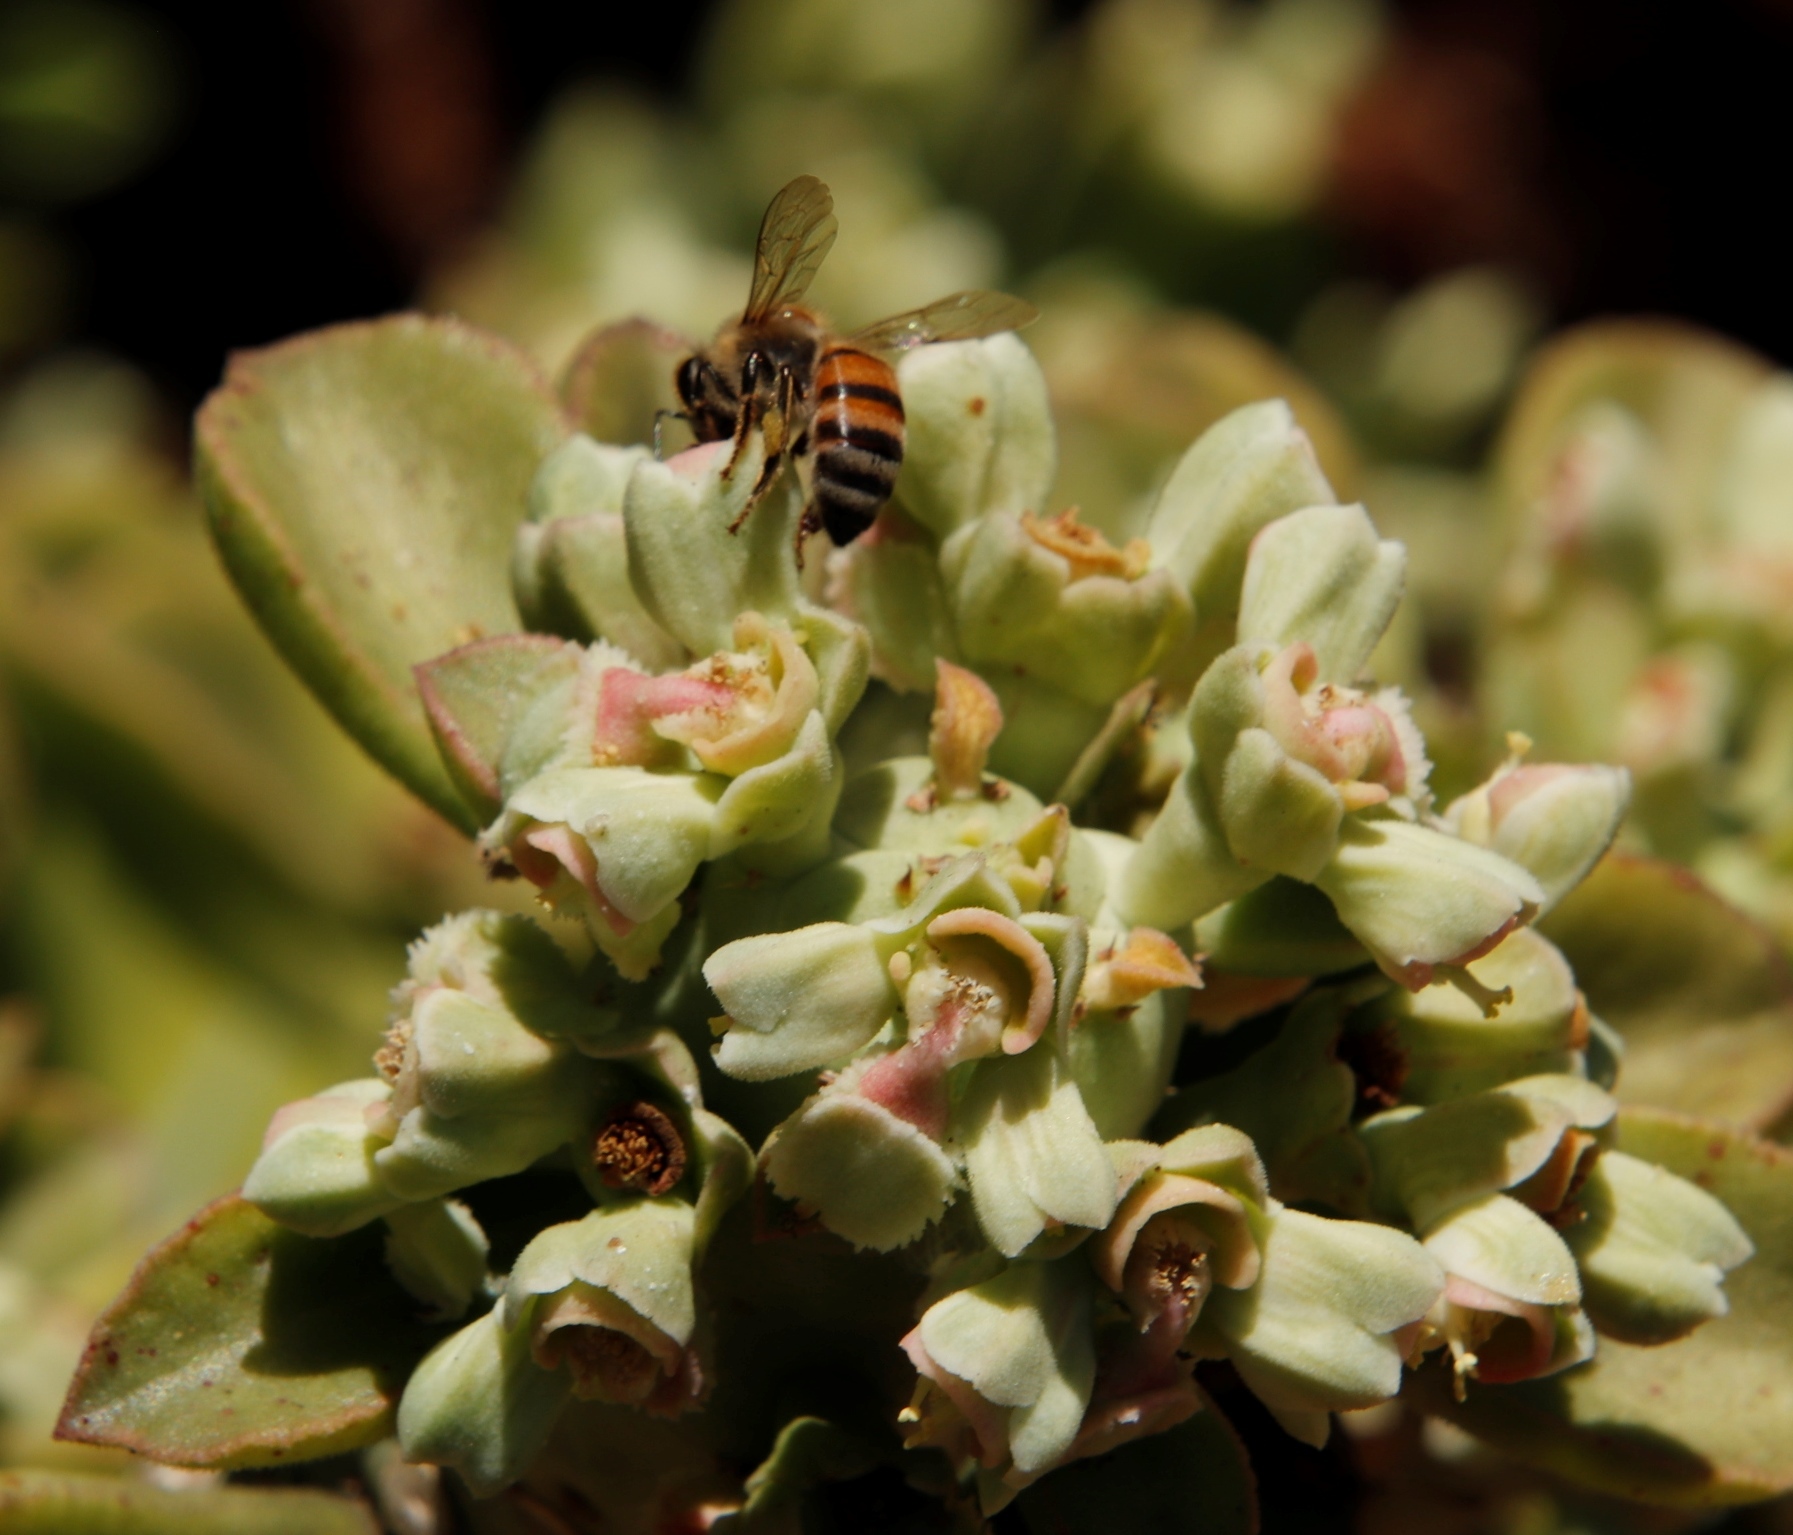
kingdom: Animalia
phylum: Arthropoda
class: Insecta
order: Hymenoptera
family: Apidae
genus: Apis
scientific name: Apis mellifera
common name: Honey bee
